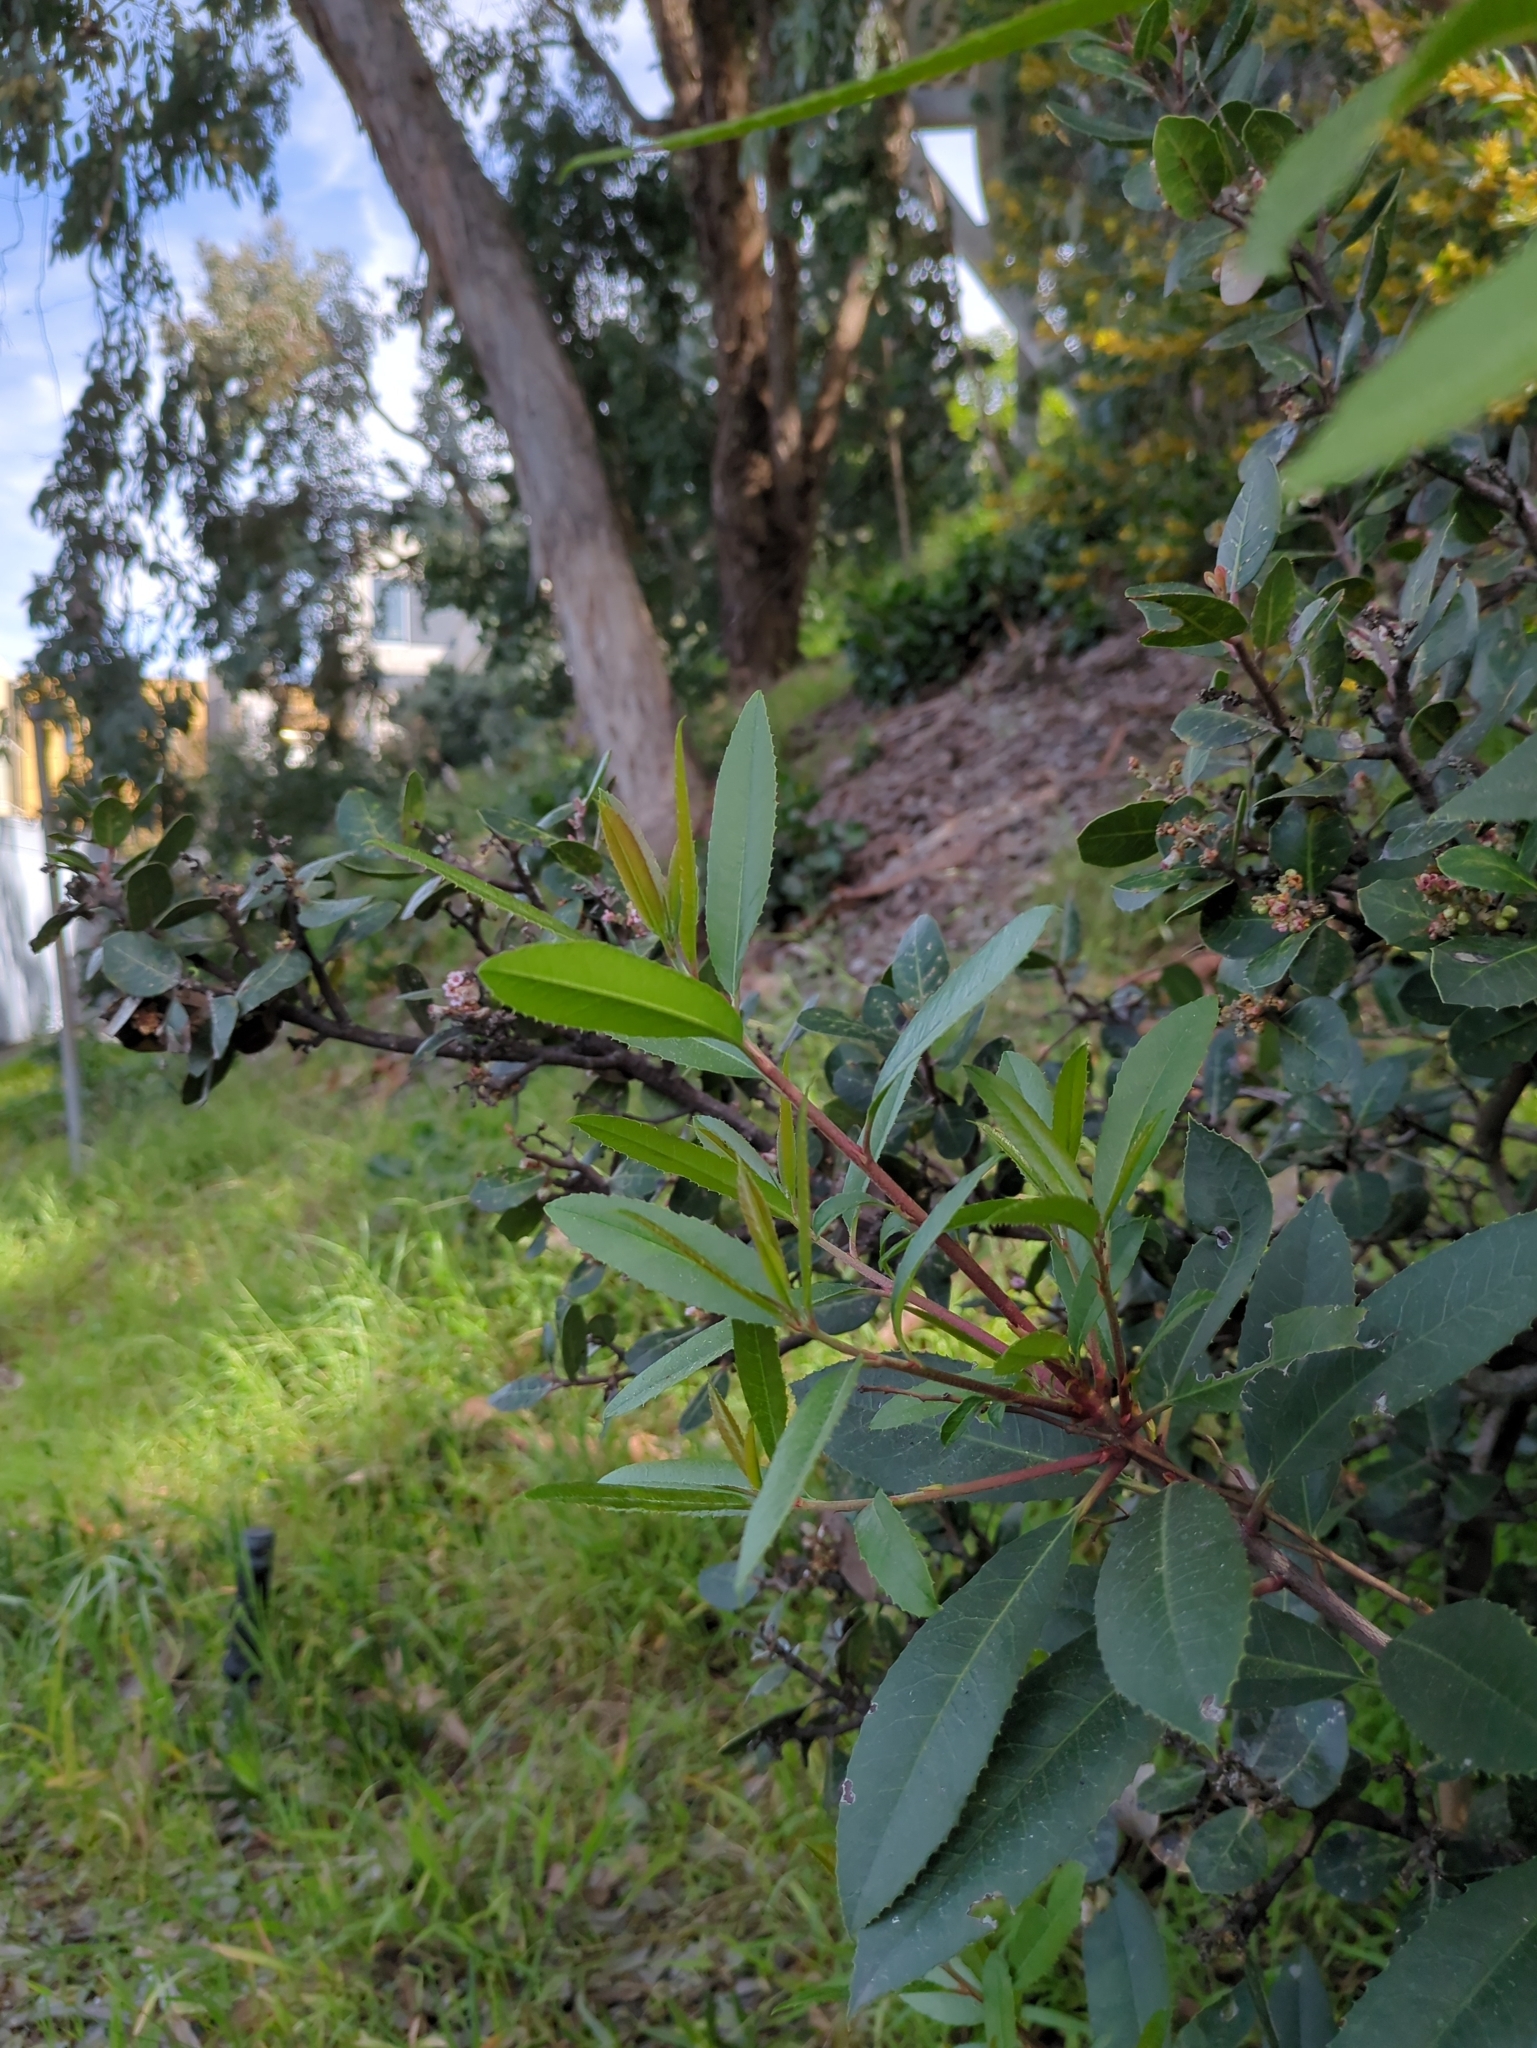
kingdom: Plantae
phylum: Tracheophyta
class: Magnoliopsida
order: Rosales
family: Rosaceae
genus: Heteromeles
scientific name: Heteromeles arbutifolia
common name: California-holly
